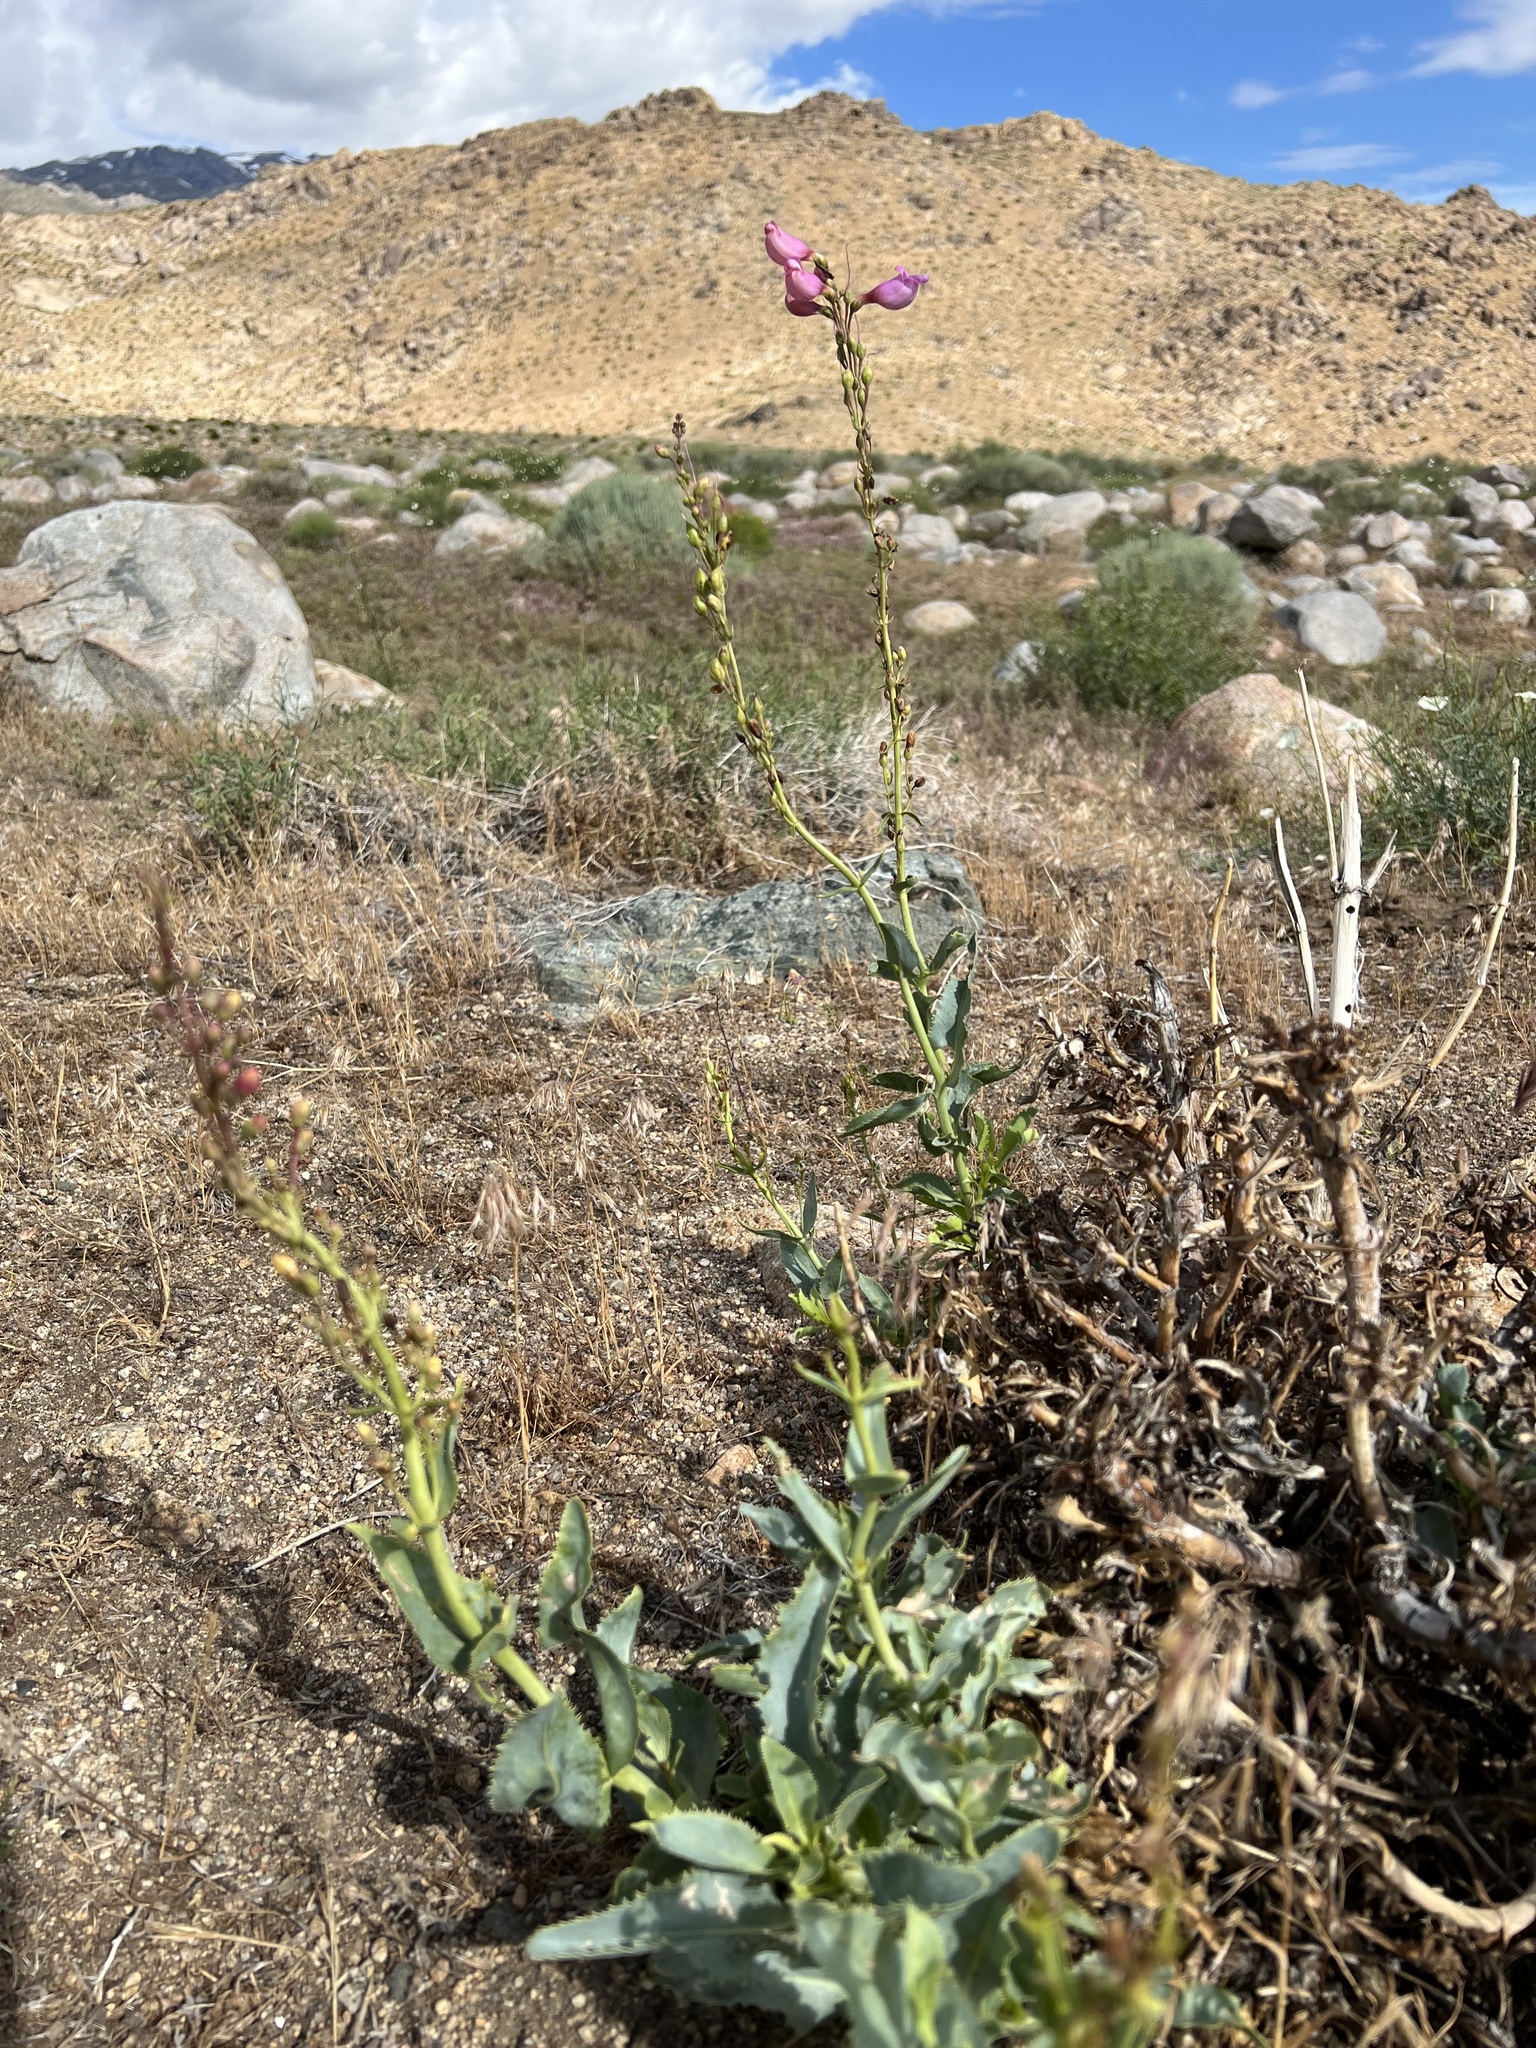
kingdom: Plantae
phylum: Tracheophyta
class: Magnoliopsida
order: Lamiales
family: Plantaginaceae
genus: Penstemon
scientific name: Penstemon floridus
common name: Panamint penstemon
